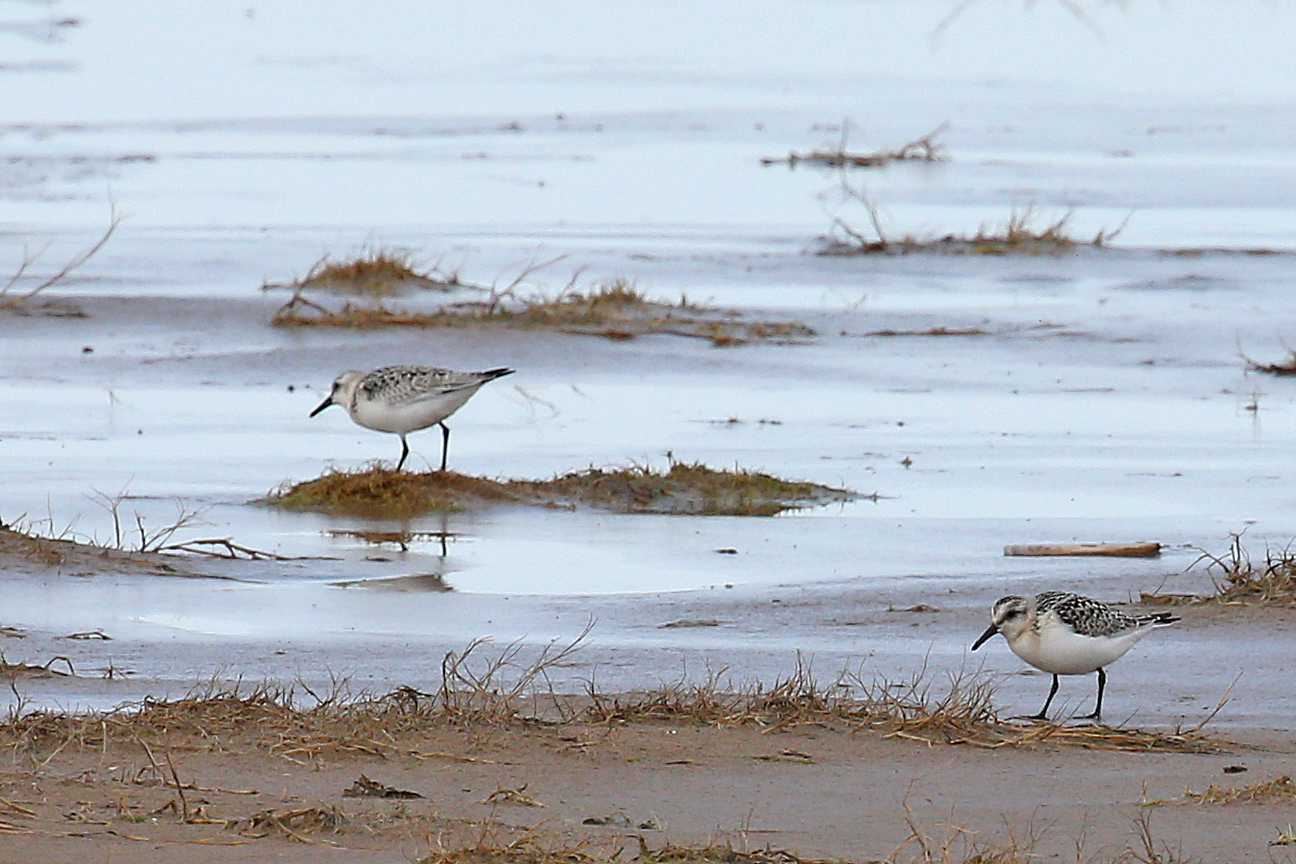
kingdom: Animalia
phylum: Chordata
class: Aves
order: Charadriiformes
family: Scolopacidae
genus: Calidris
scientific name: Calidris alba
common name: Sanderling
